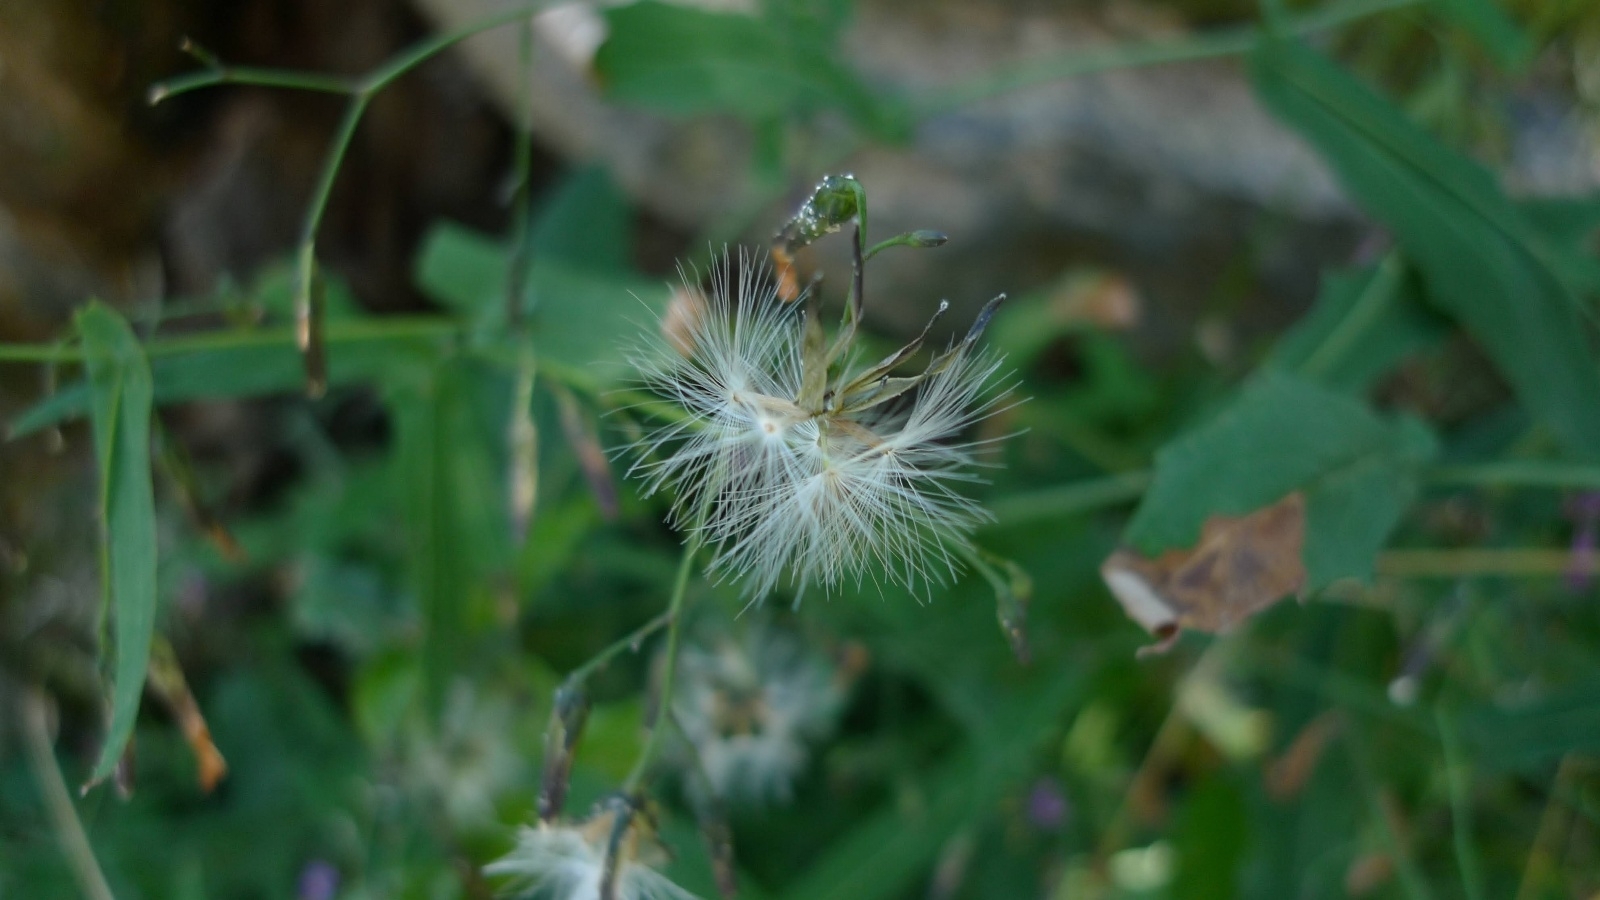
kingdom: Plantae
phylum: Tracheophyta
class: Magnoliopsida
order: Asterales
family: Asteraceae
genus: Prenanthes
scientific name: Prenanthes purpurea
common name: Purple lettuce
